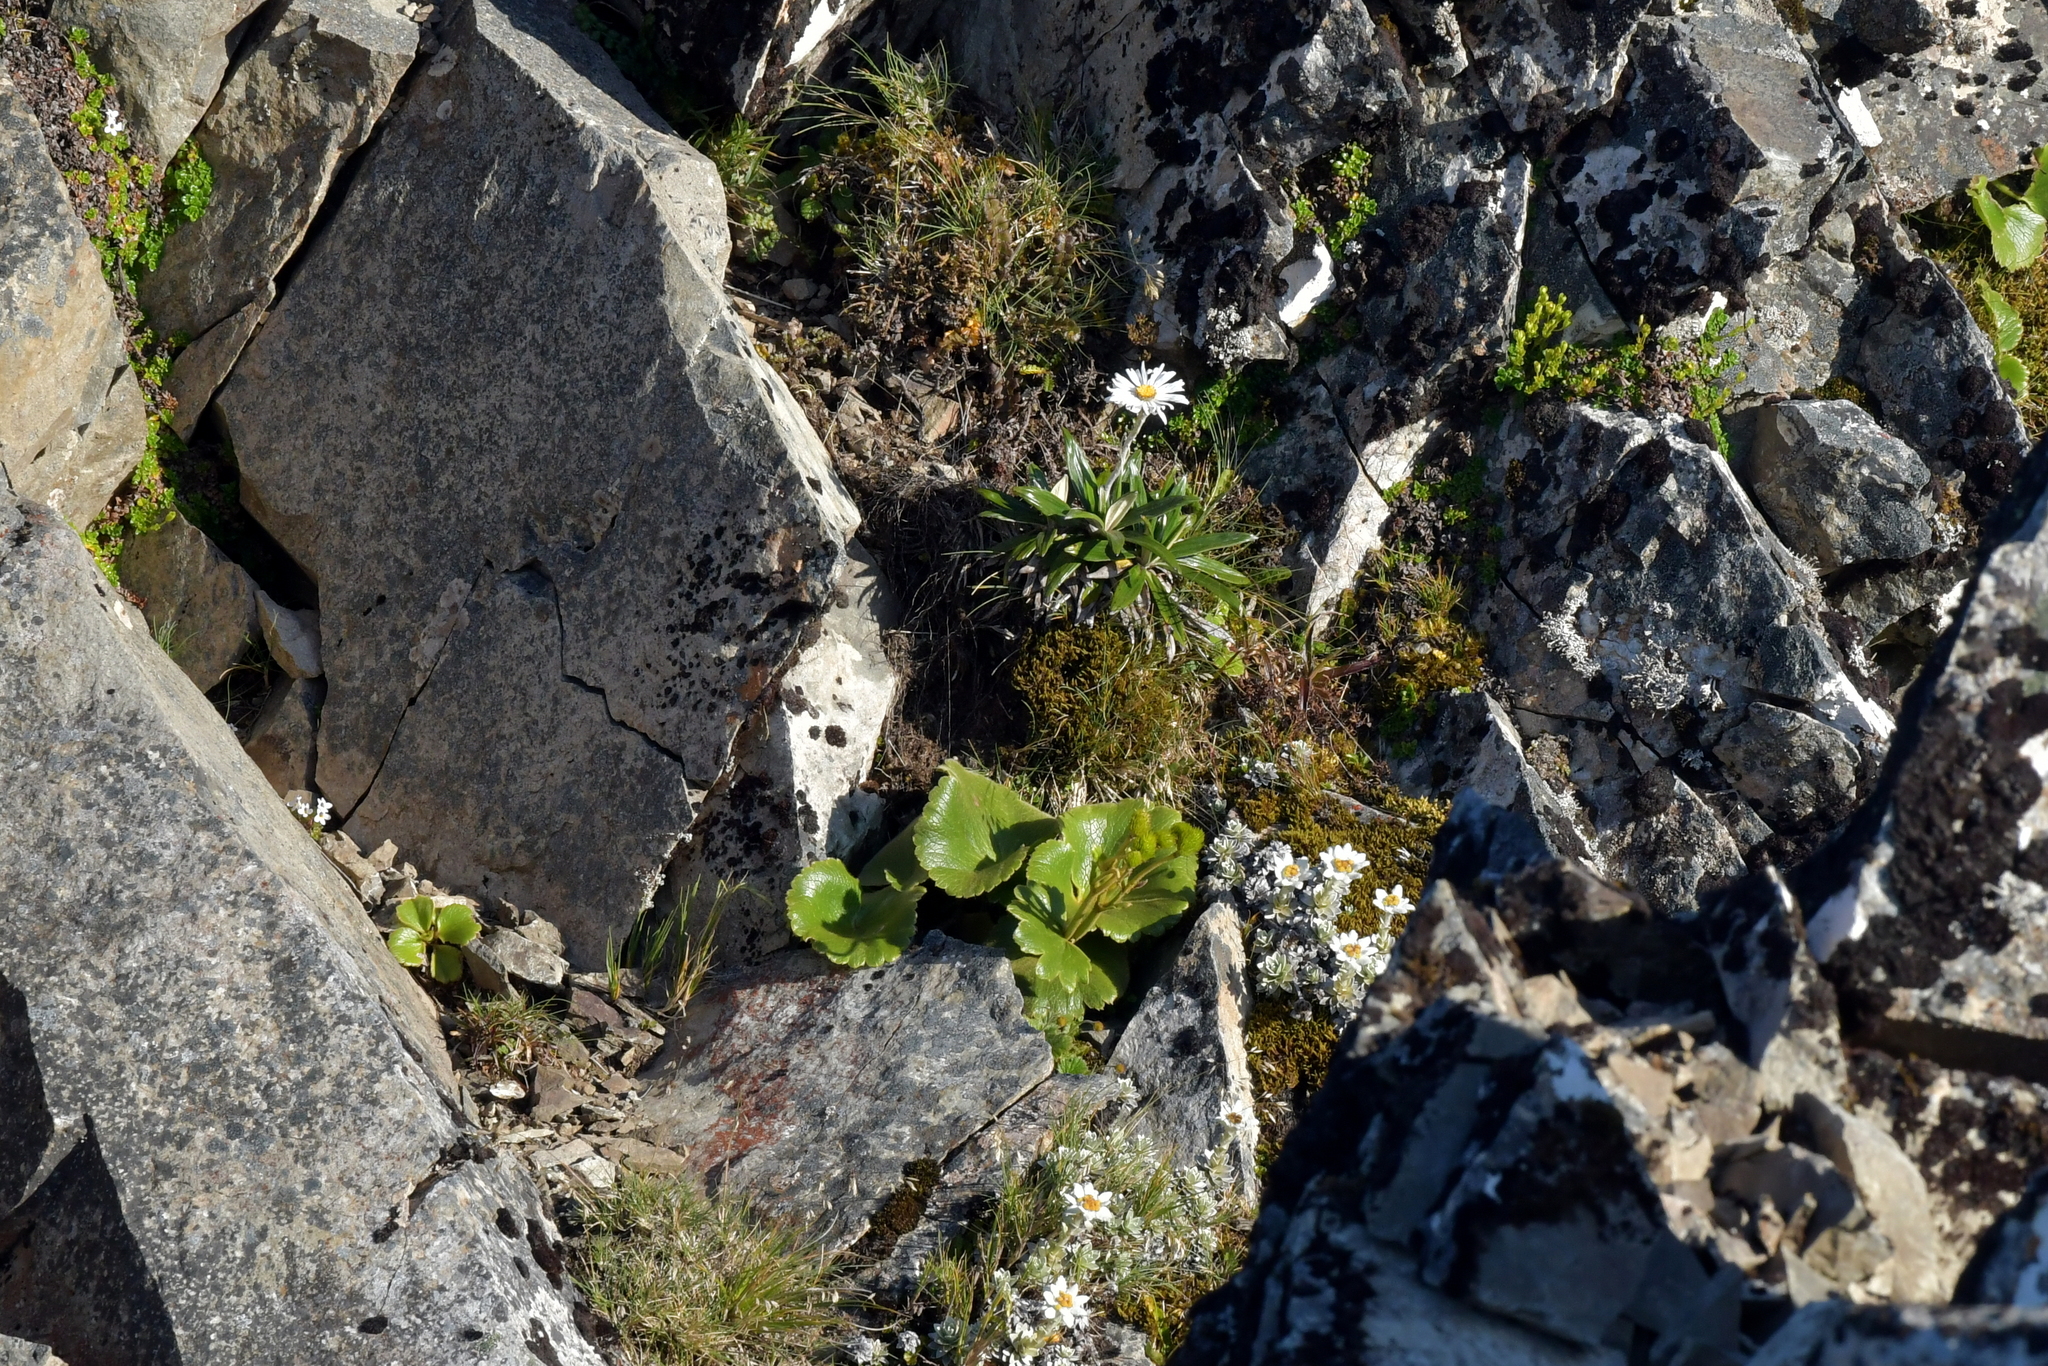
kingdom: Plantae
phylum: Tracheophyta
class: Magnoliopsida
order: Ranunculales
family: Ranunculaceae
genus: Ranunculus
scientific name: Ranunculus insignis
